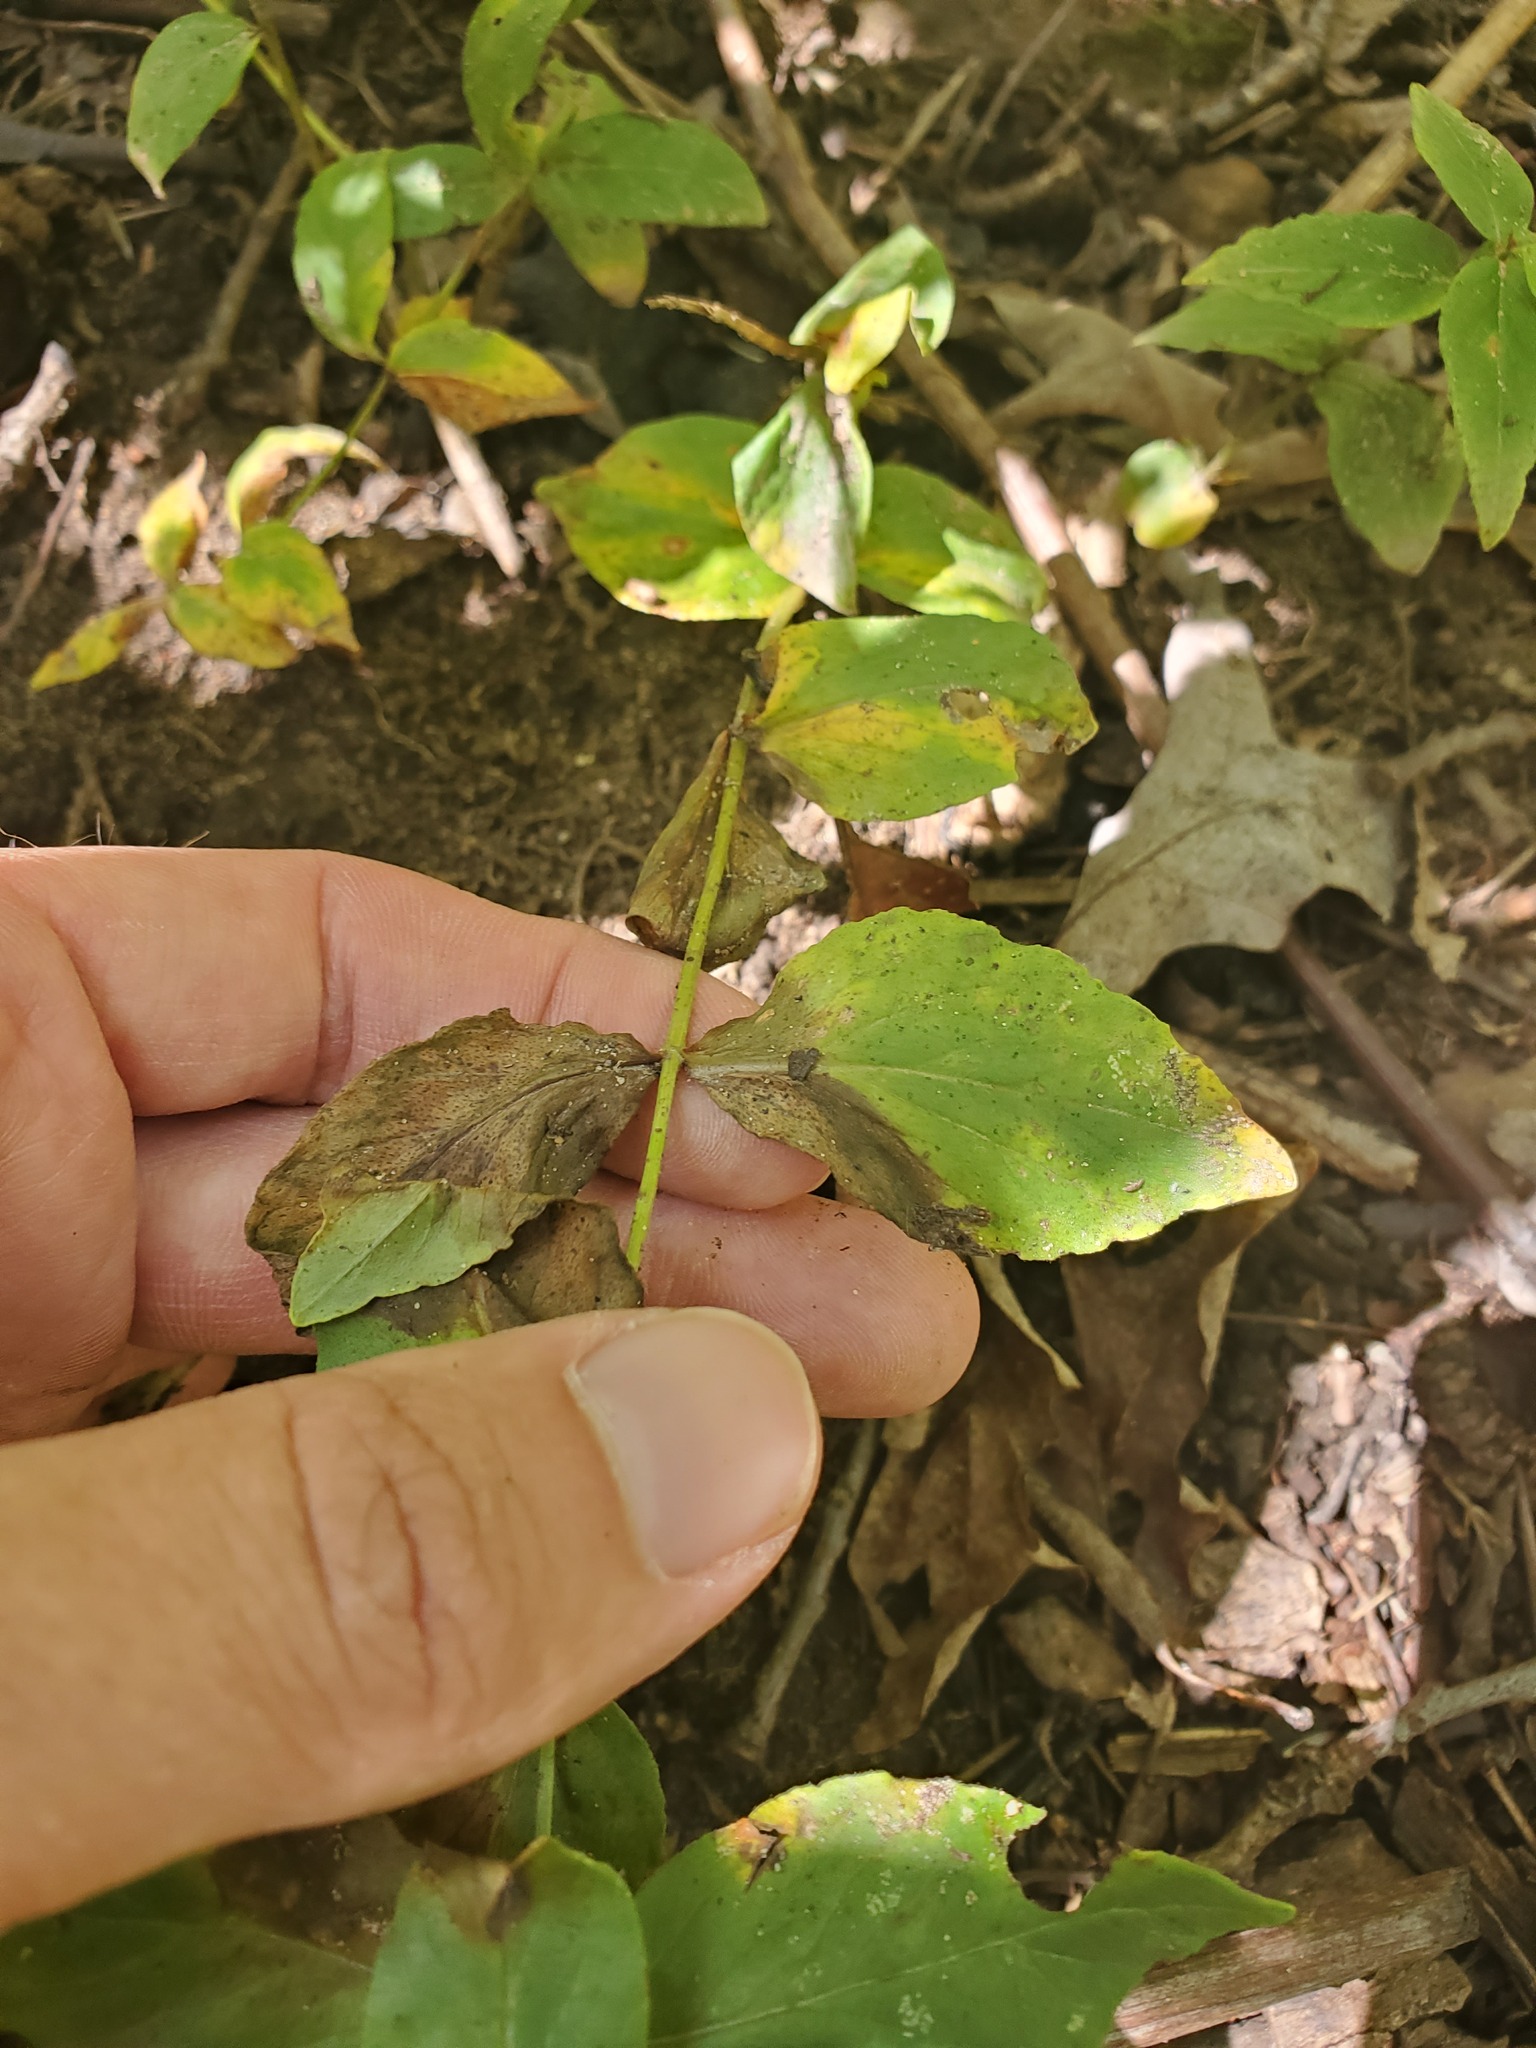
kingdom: Plantae
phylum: Tracheophyta
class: Magnoliopsida
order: Ericales
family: Primulaceae
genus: Lysimachia
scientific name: Lysimachia quadrifolia
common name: Whorled loosestrife
